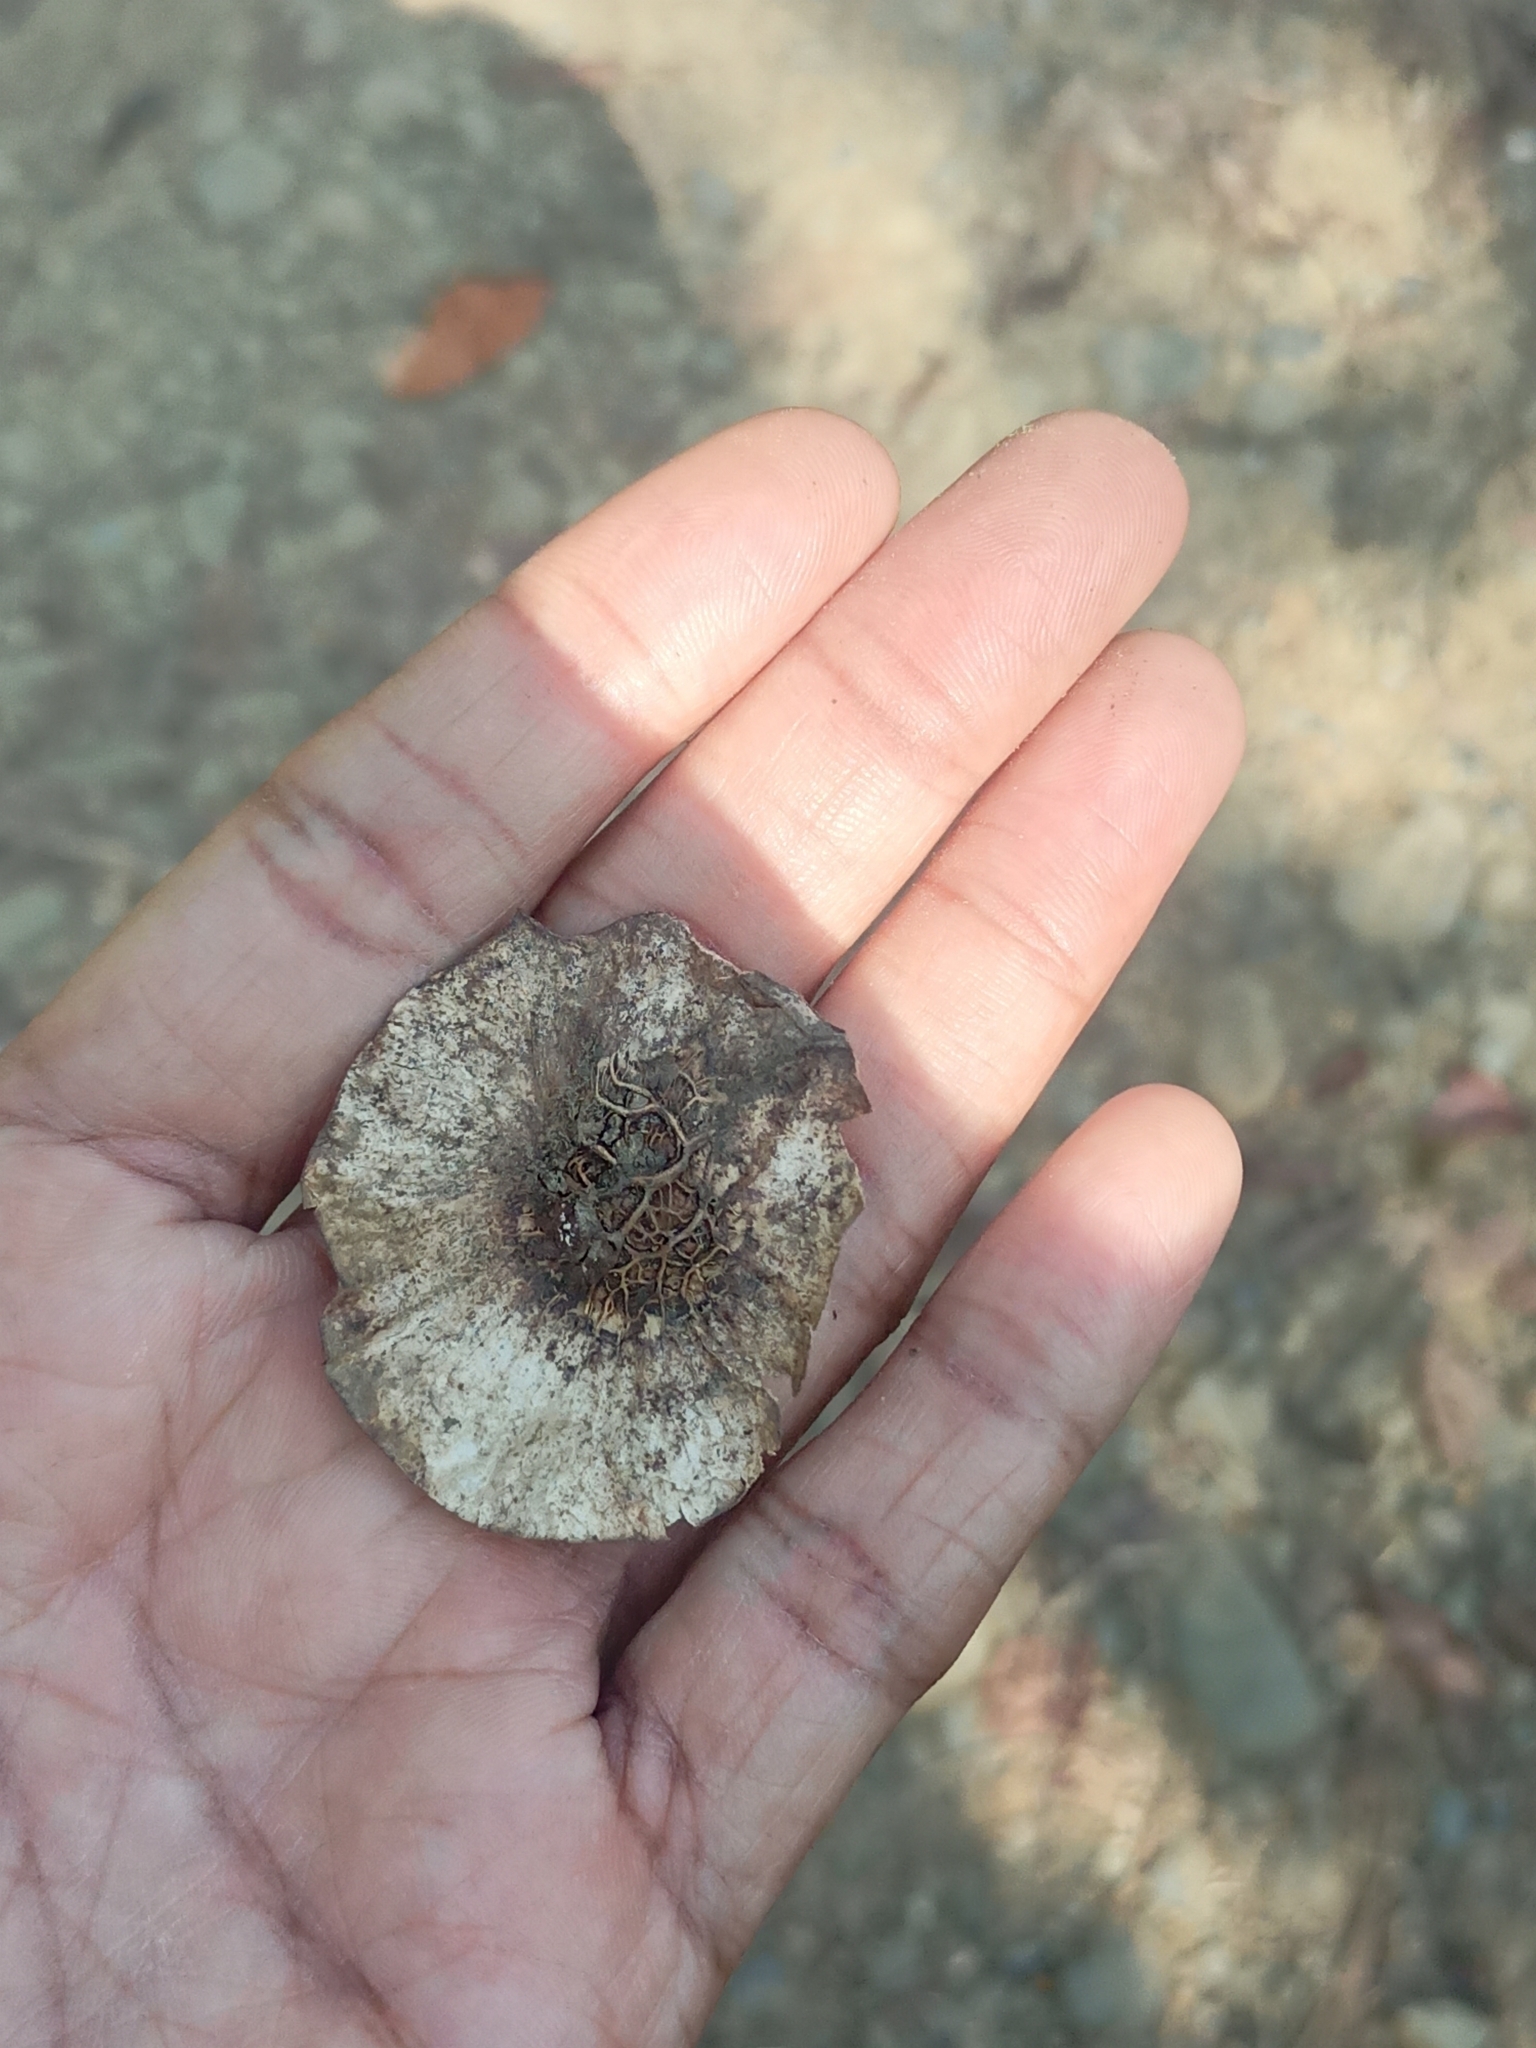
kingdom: Plantae
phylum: Tracheophyta
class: Magnoliopsida
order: Fabales
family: Fabaceae
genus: Pterocarpus
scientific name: Pterocarpus dalbergioides
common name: Andaman redwood
